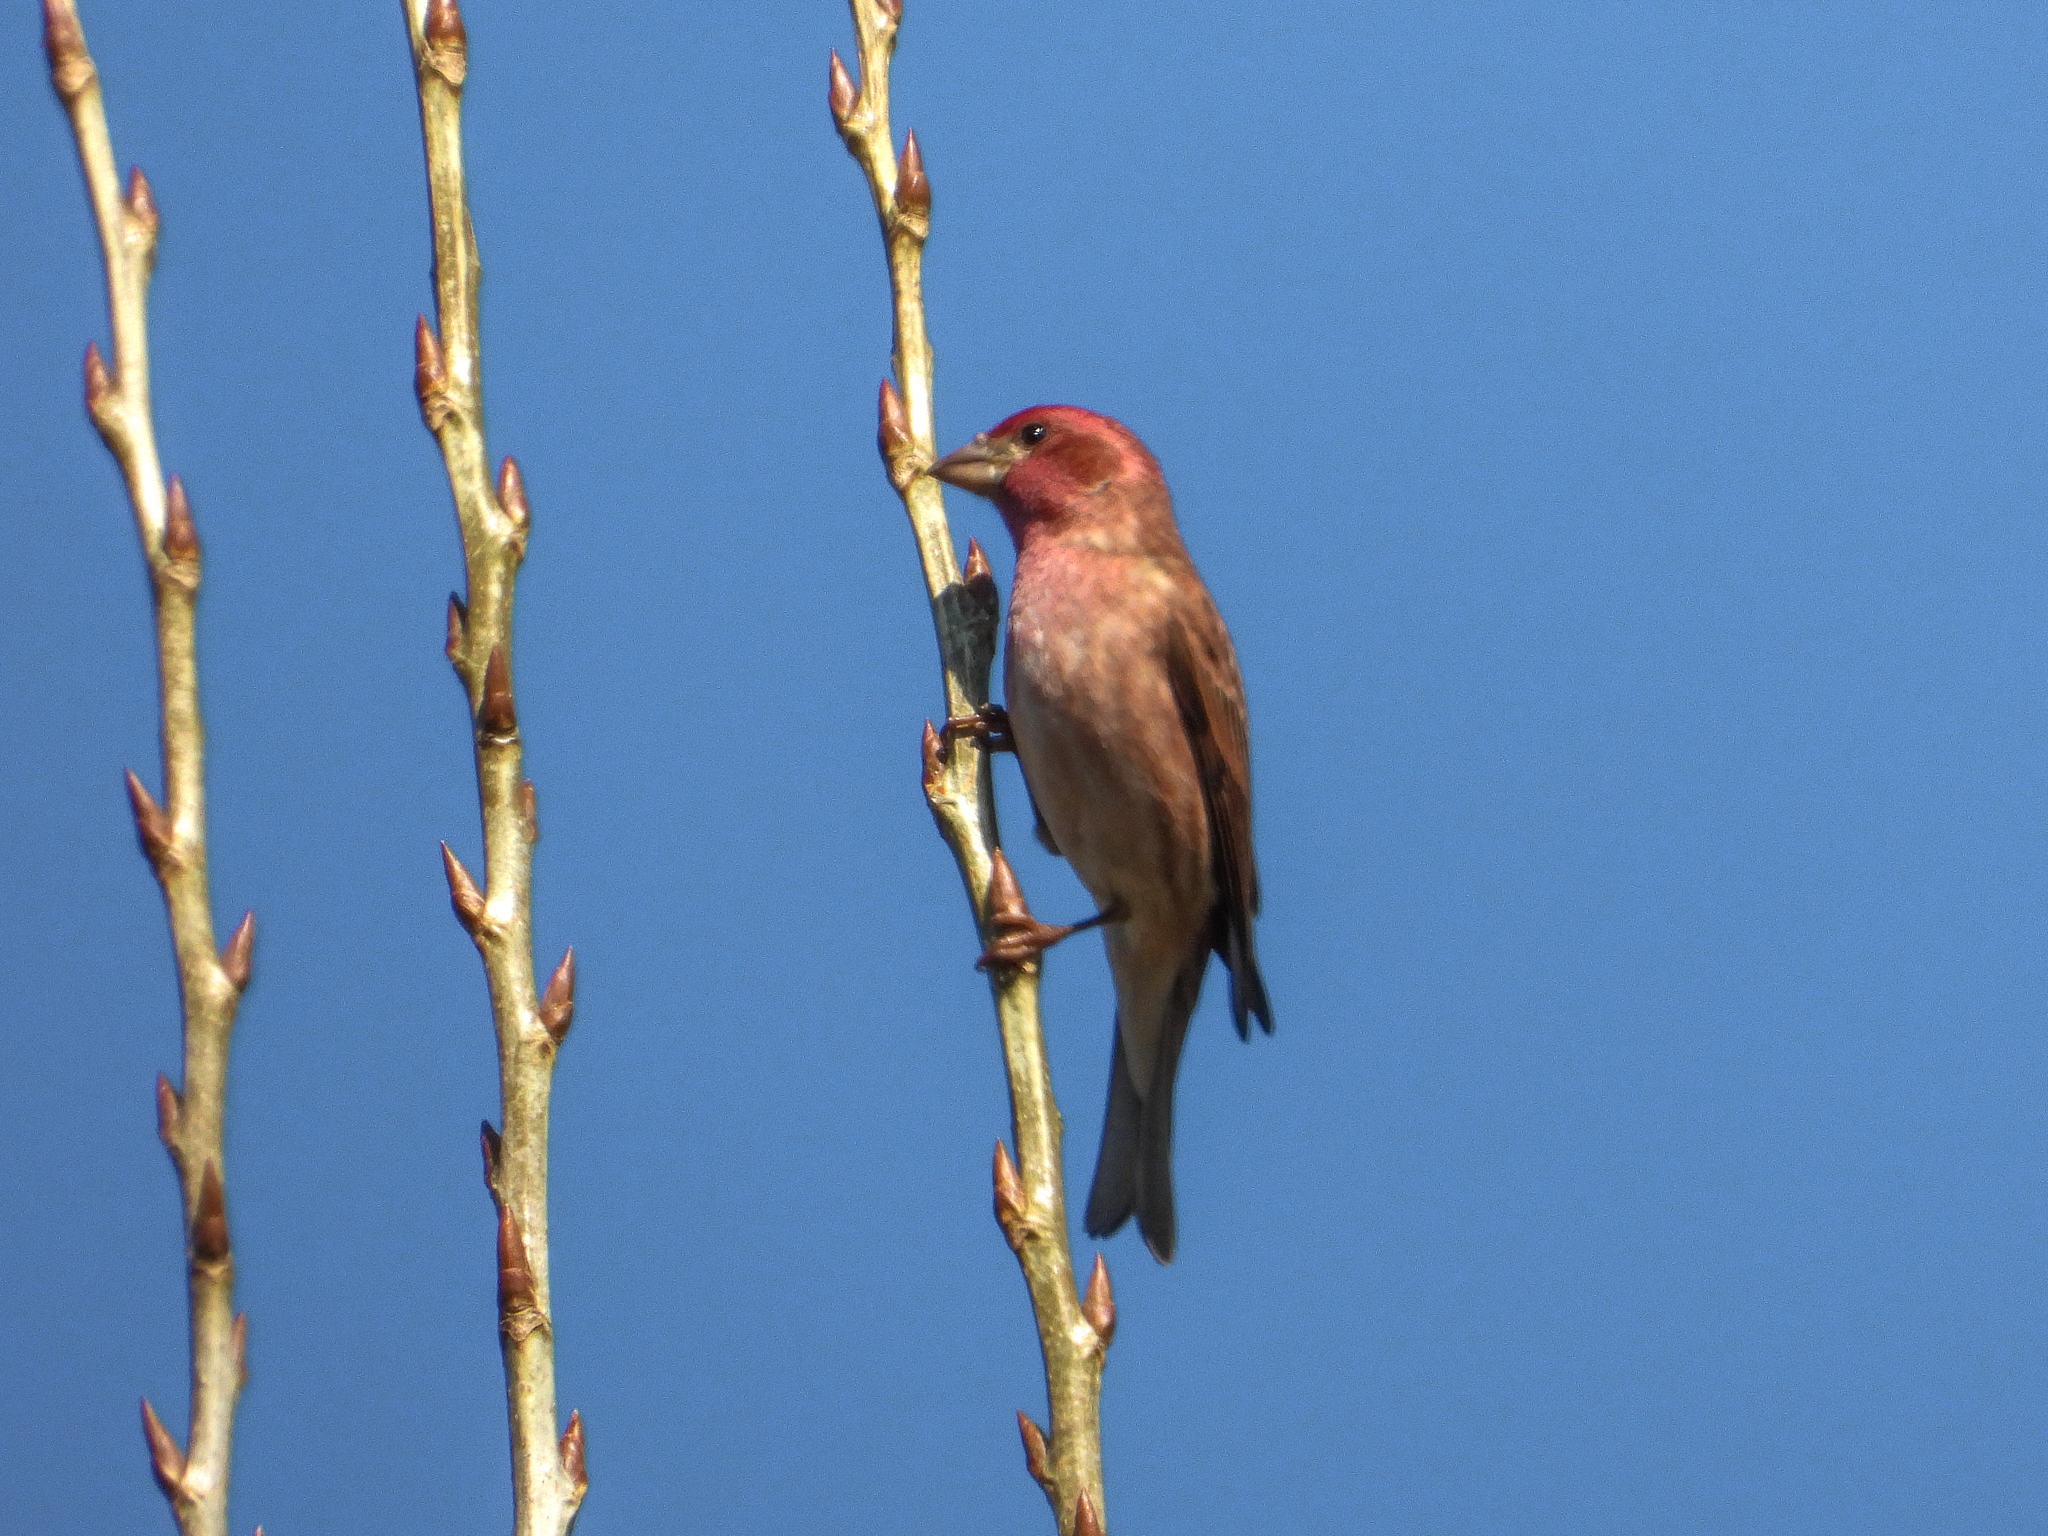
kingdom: Animalia
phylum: Chordata
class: Aves
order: Passeriformes
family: Fringillidae
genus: Haemorhous
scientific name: Haemorhous purpureus
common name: Purple finch
